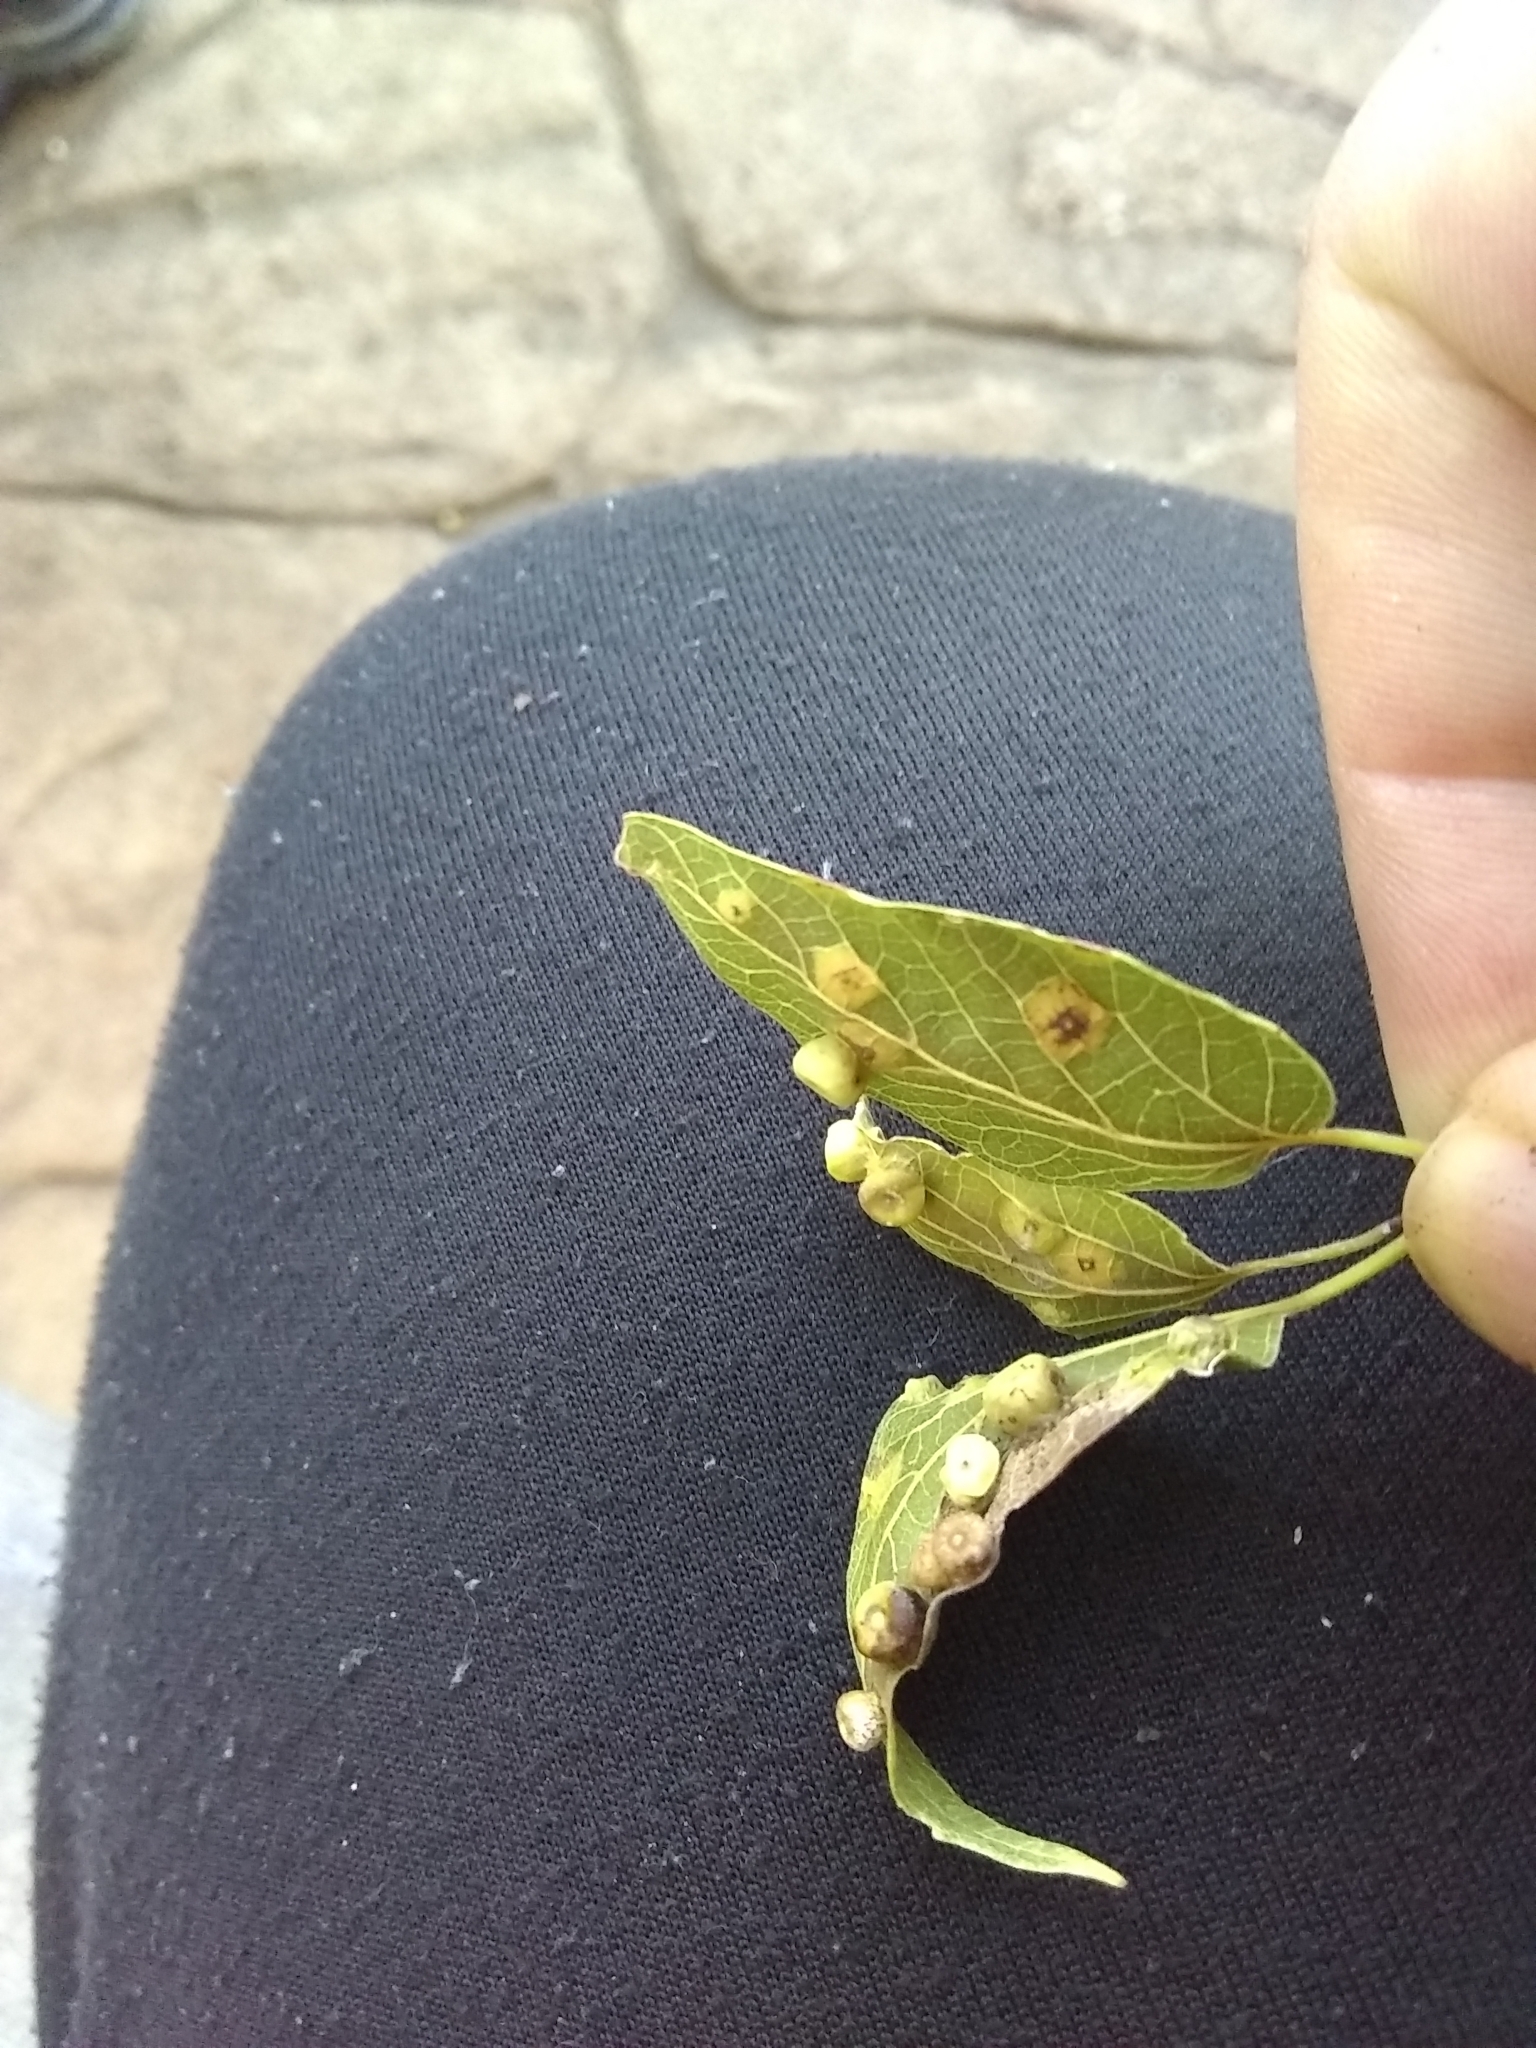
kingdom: Animalia
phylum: Arthropoda
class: Insecta
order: Hemiptera
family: Aphalaridae
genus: Pachypsylla
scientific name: Pachypsylla celtidismamma
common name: Hackberry nipplegall psyllid
